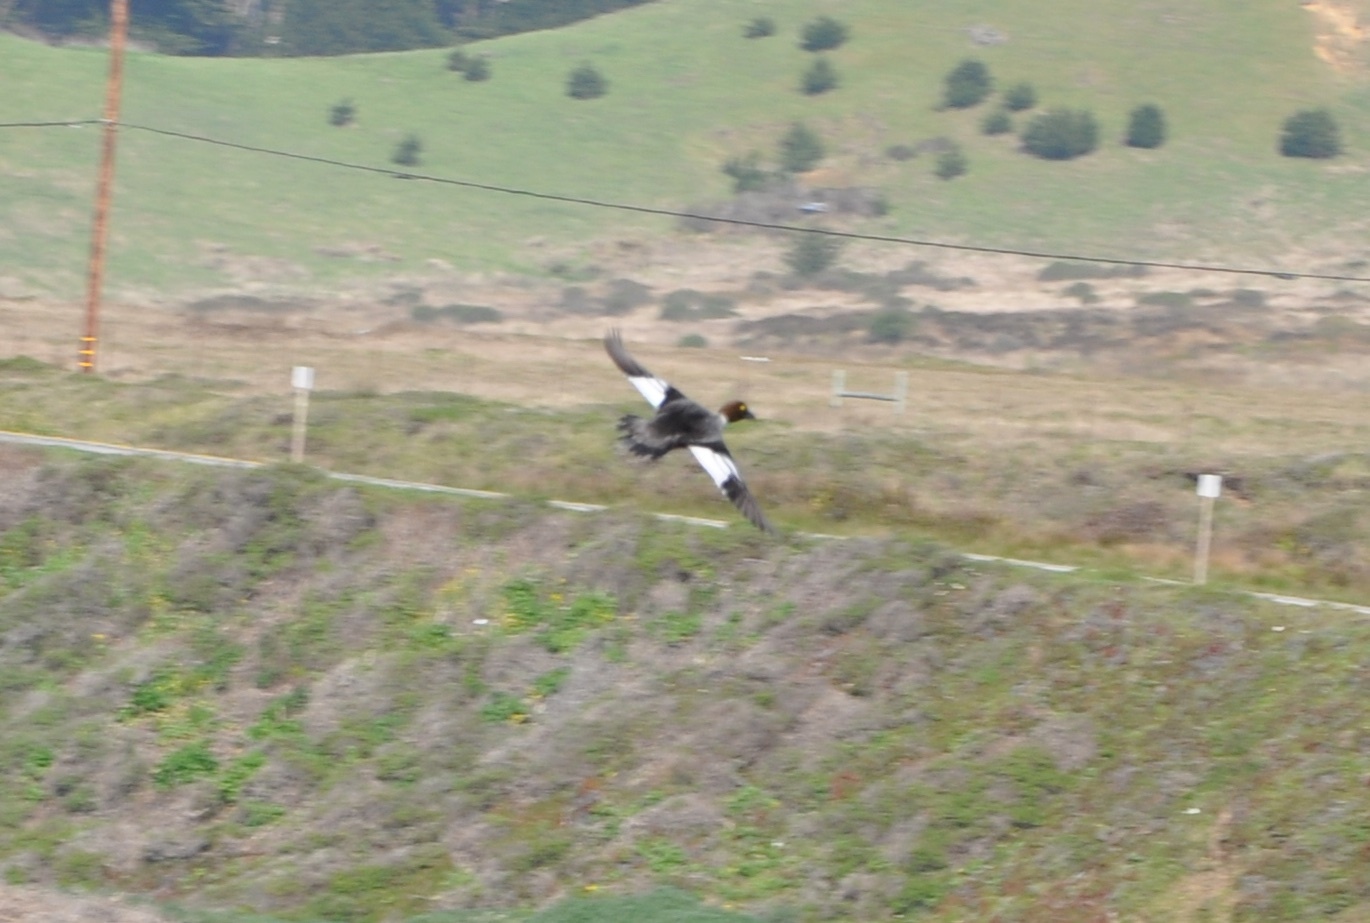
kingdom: Animalia
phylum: Chordata
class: Aves
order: Anseriformes
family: Anatidae
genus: Bucephala
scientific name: Bucephala clangula
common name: Common goldeneye
